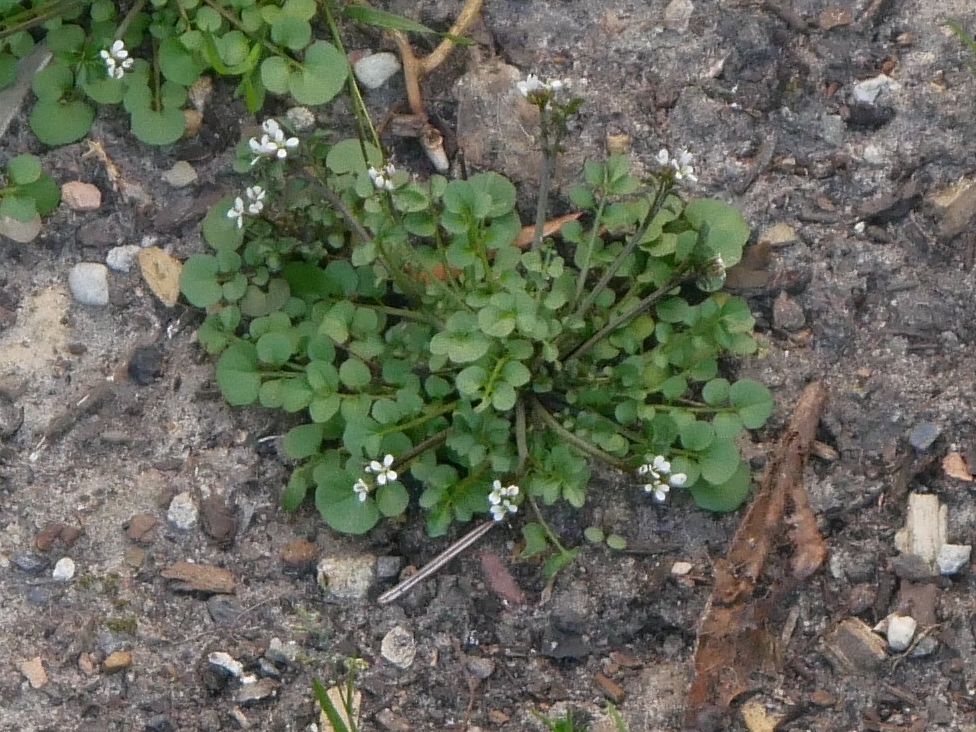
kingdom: Plantae
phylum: Tracheophyta
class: Magnoliopsida
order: Brassicales
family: Brassicaceae
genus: Cardamine
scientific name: Cardamine hirsuta
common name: Hairy bittercress
